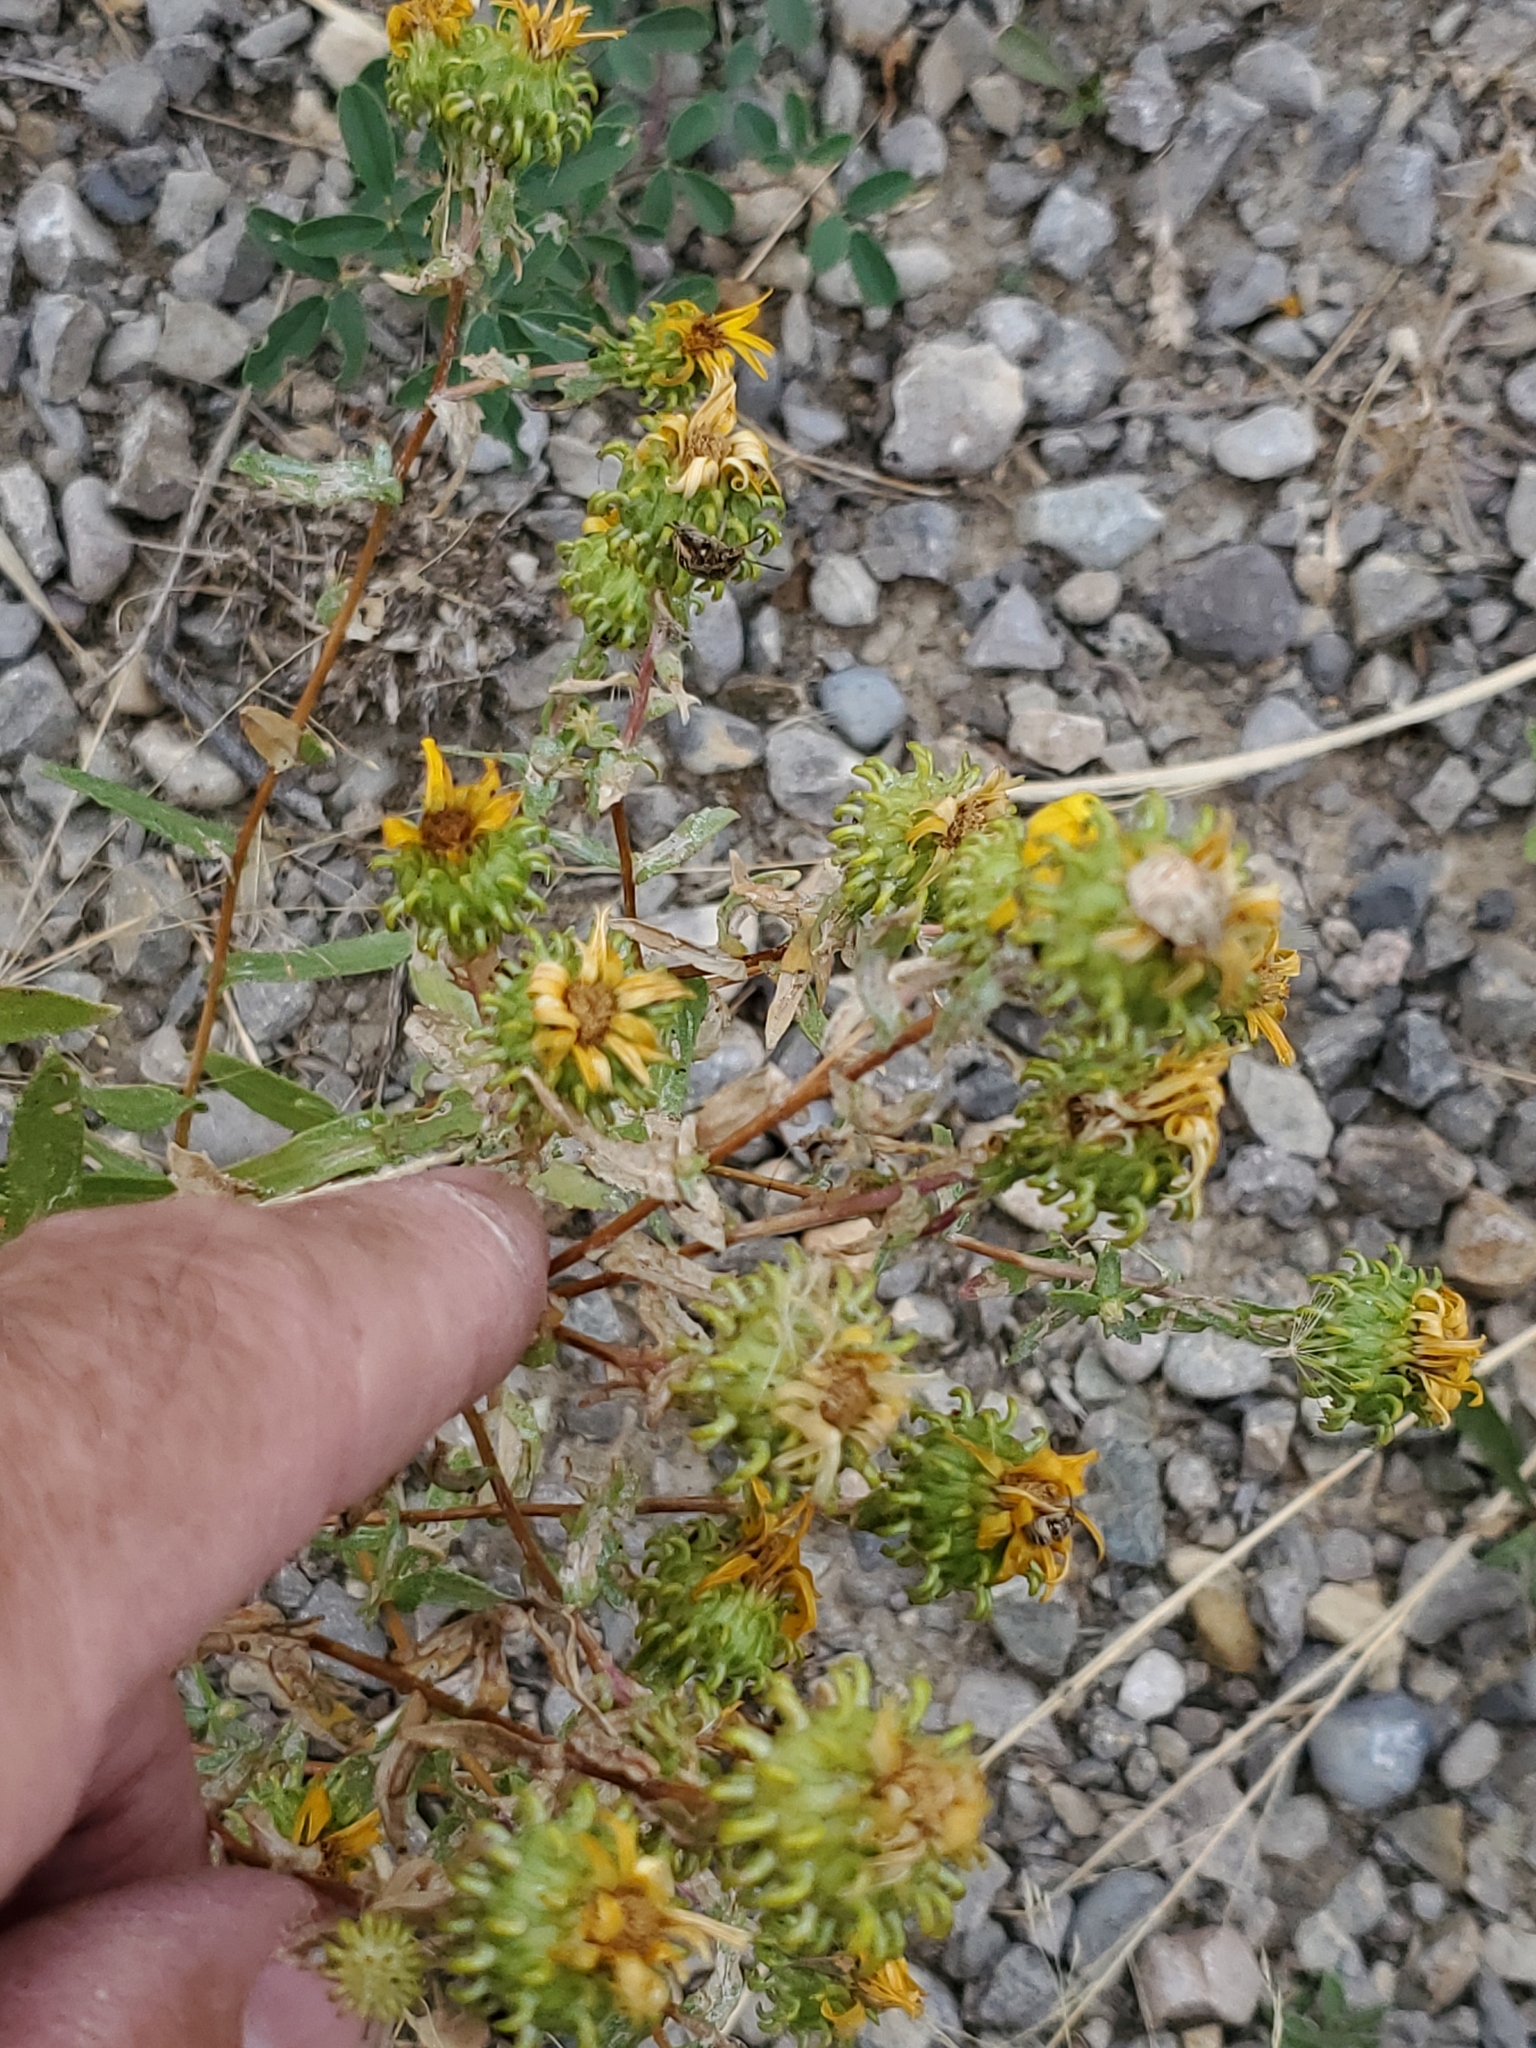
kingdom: Plantae
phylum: Tracheophyta
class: Magnoliopsida
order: Asterales
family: Asteraceae
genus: Grindelia
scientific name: Grindelia squarrosa
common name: Curly-cup gumweed
